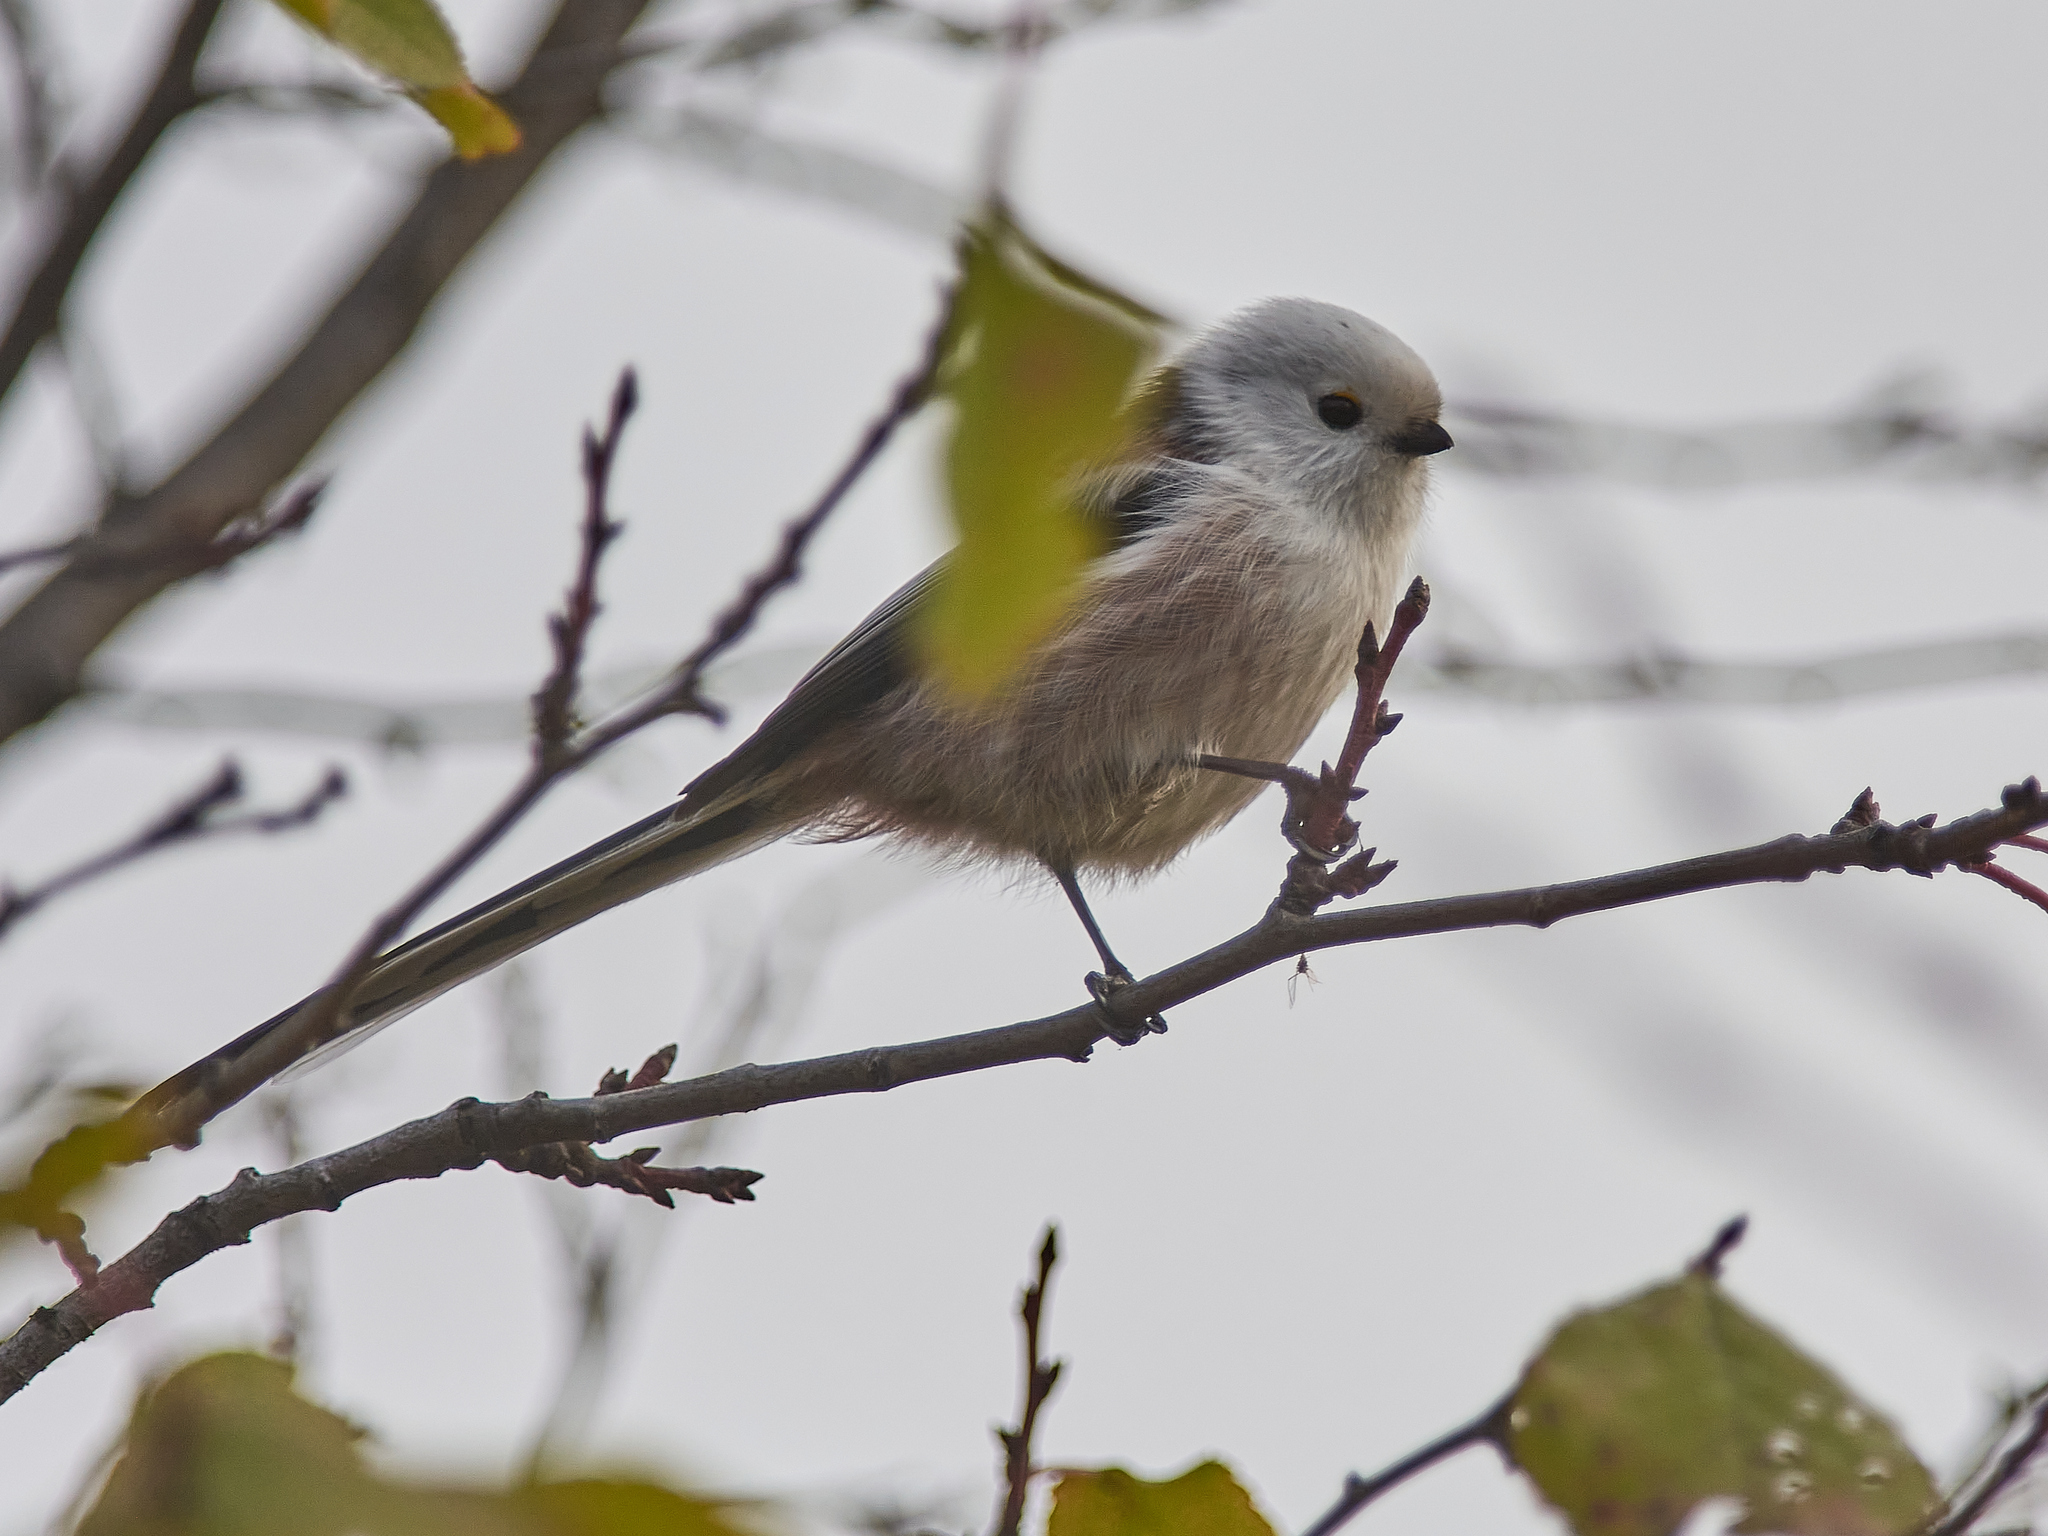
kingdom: Animalia
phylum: Chordata
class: Aves
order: Passeriformes
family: Aegithalidae
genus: Aegithalos
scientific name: Aegithalos caudatus
